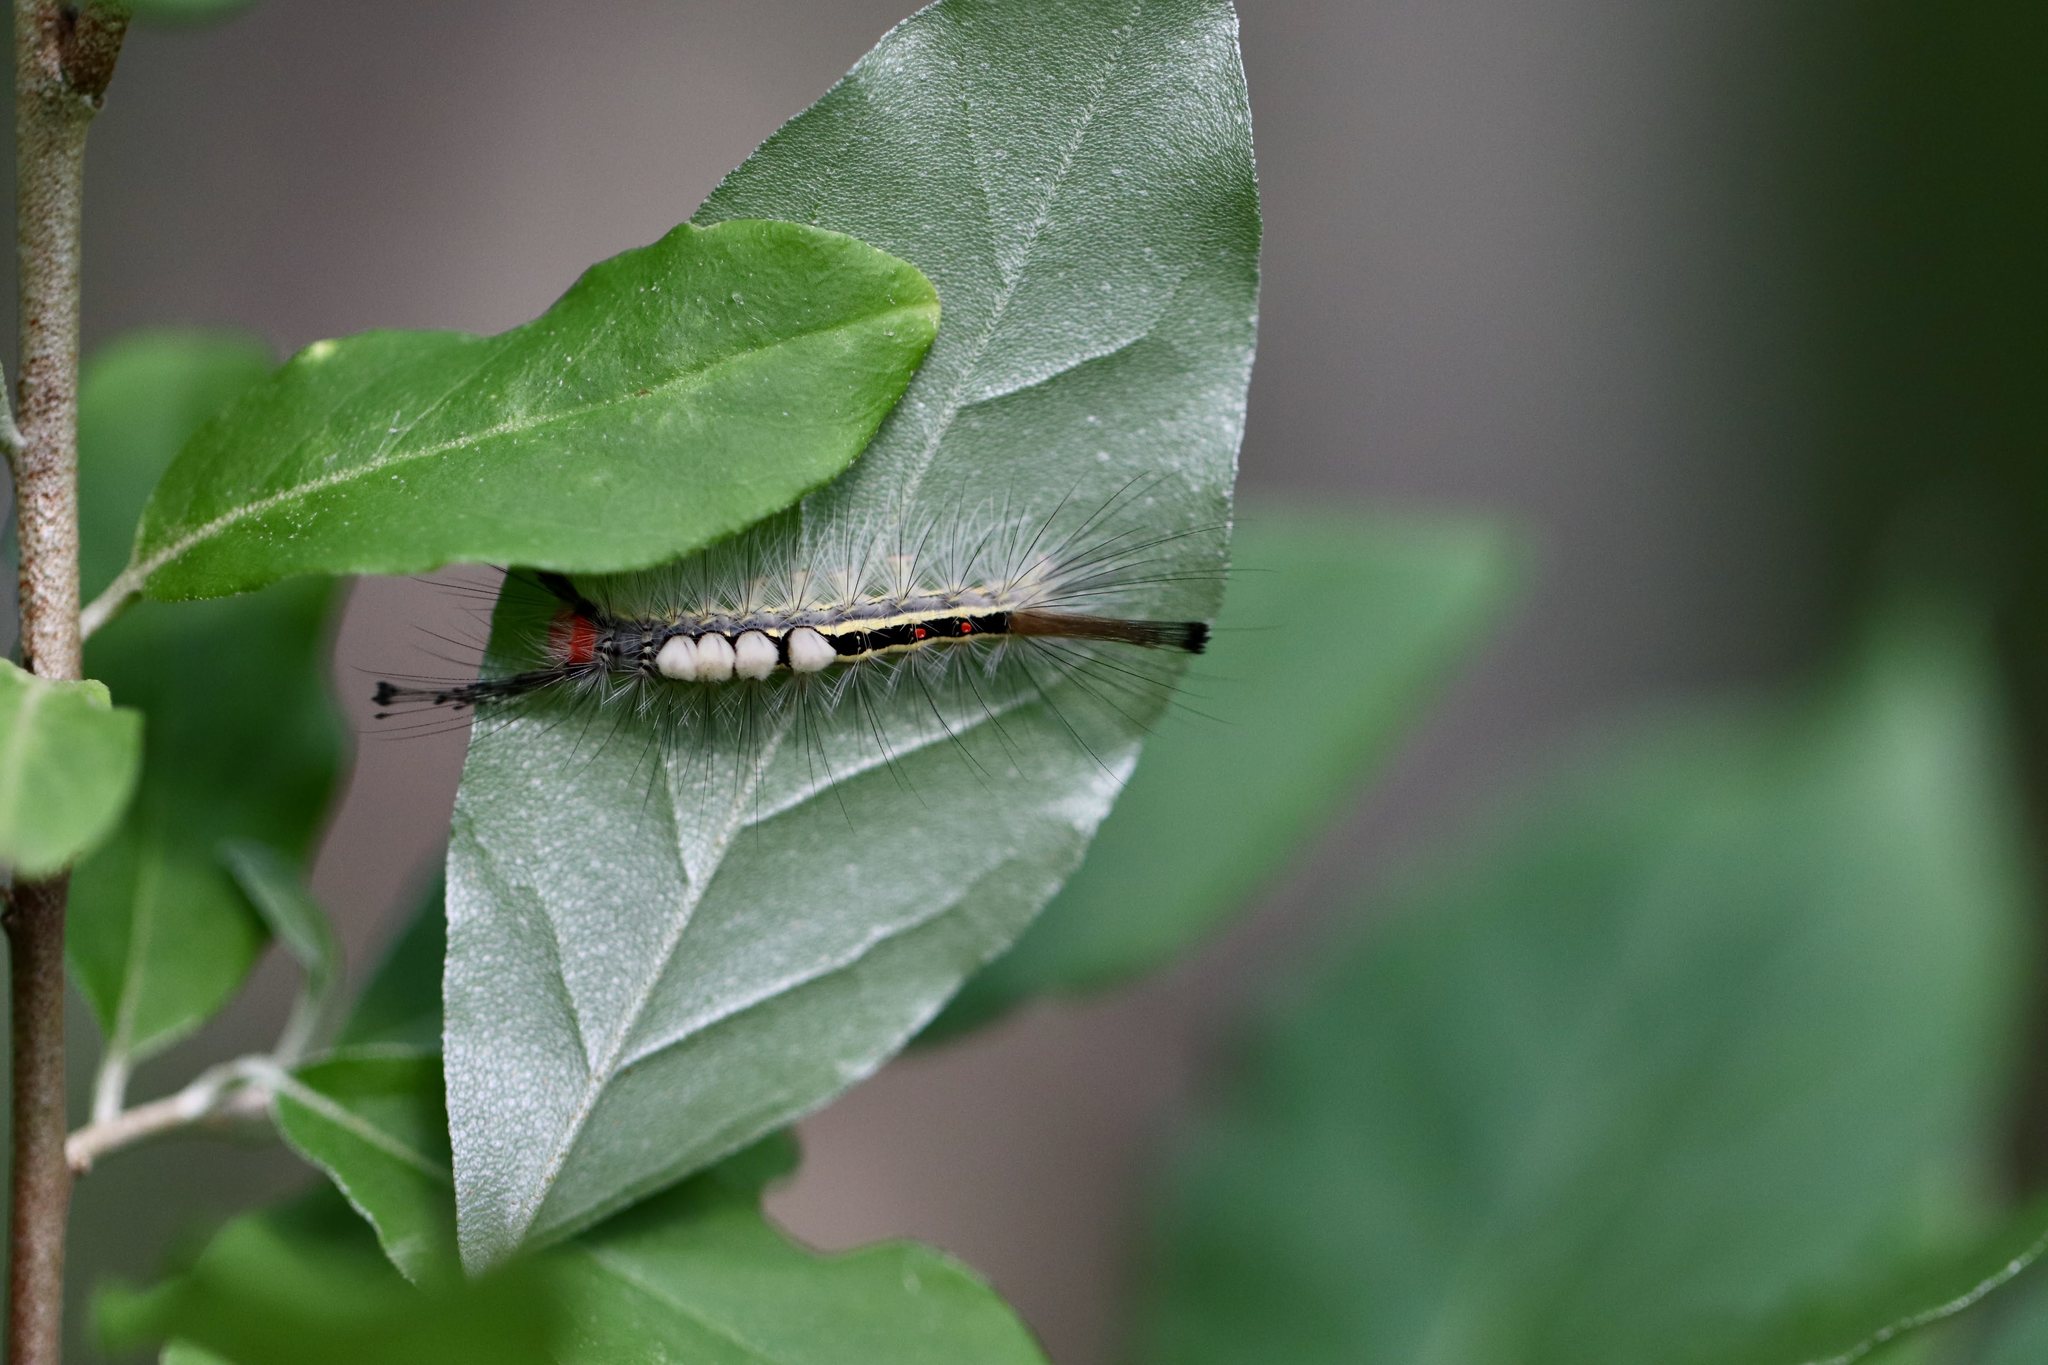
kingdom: Animalia
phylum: Arthropoda
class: Insecta
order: Lepidoptera
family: Erebidae
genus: Orgyia
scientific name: Orgyia leucostigma
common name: White-marked tussock moth
